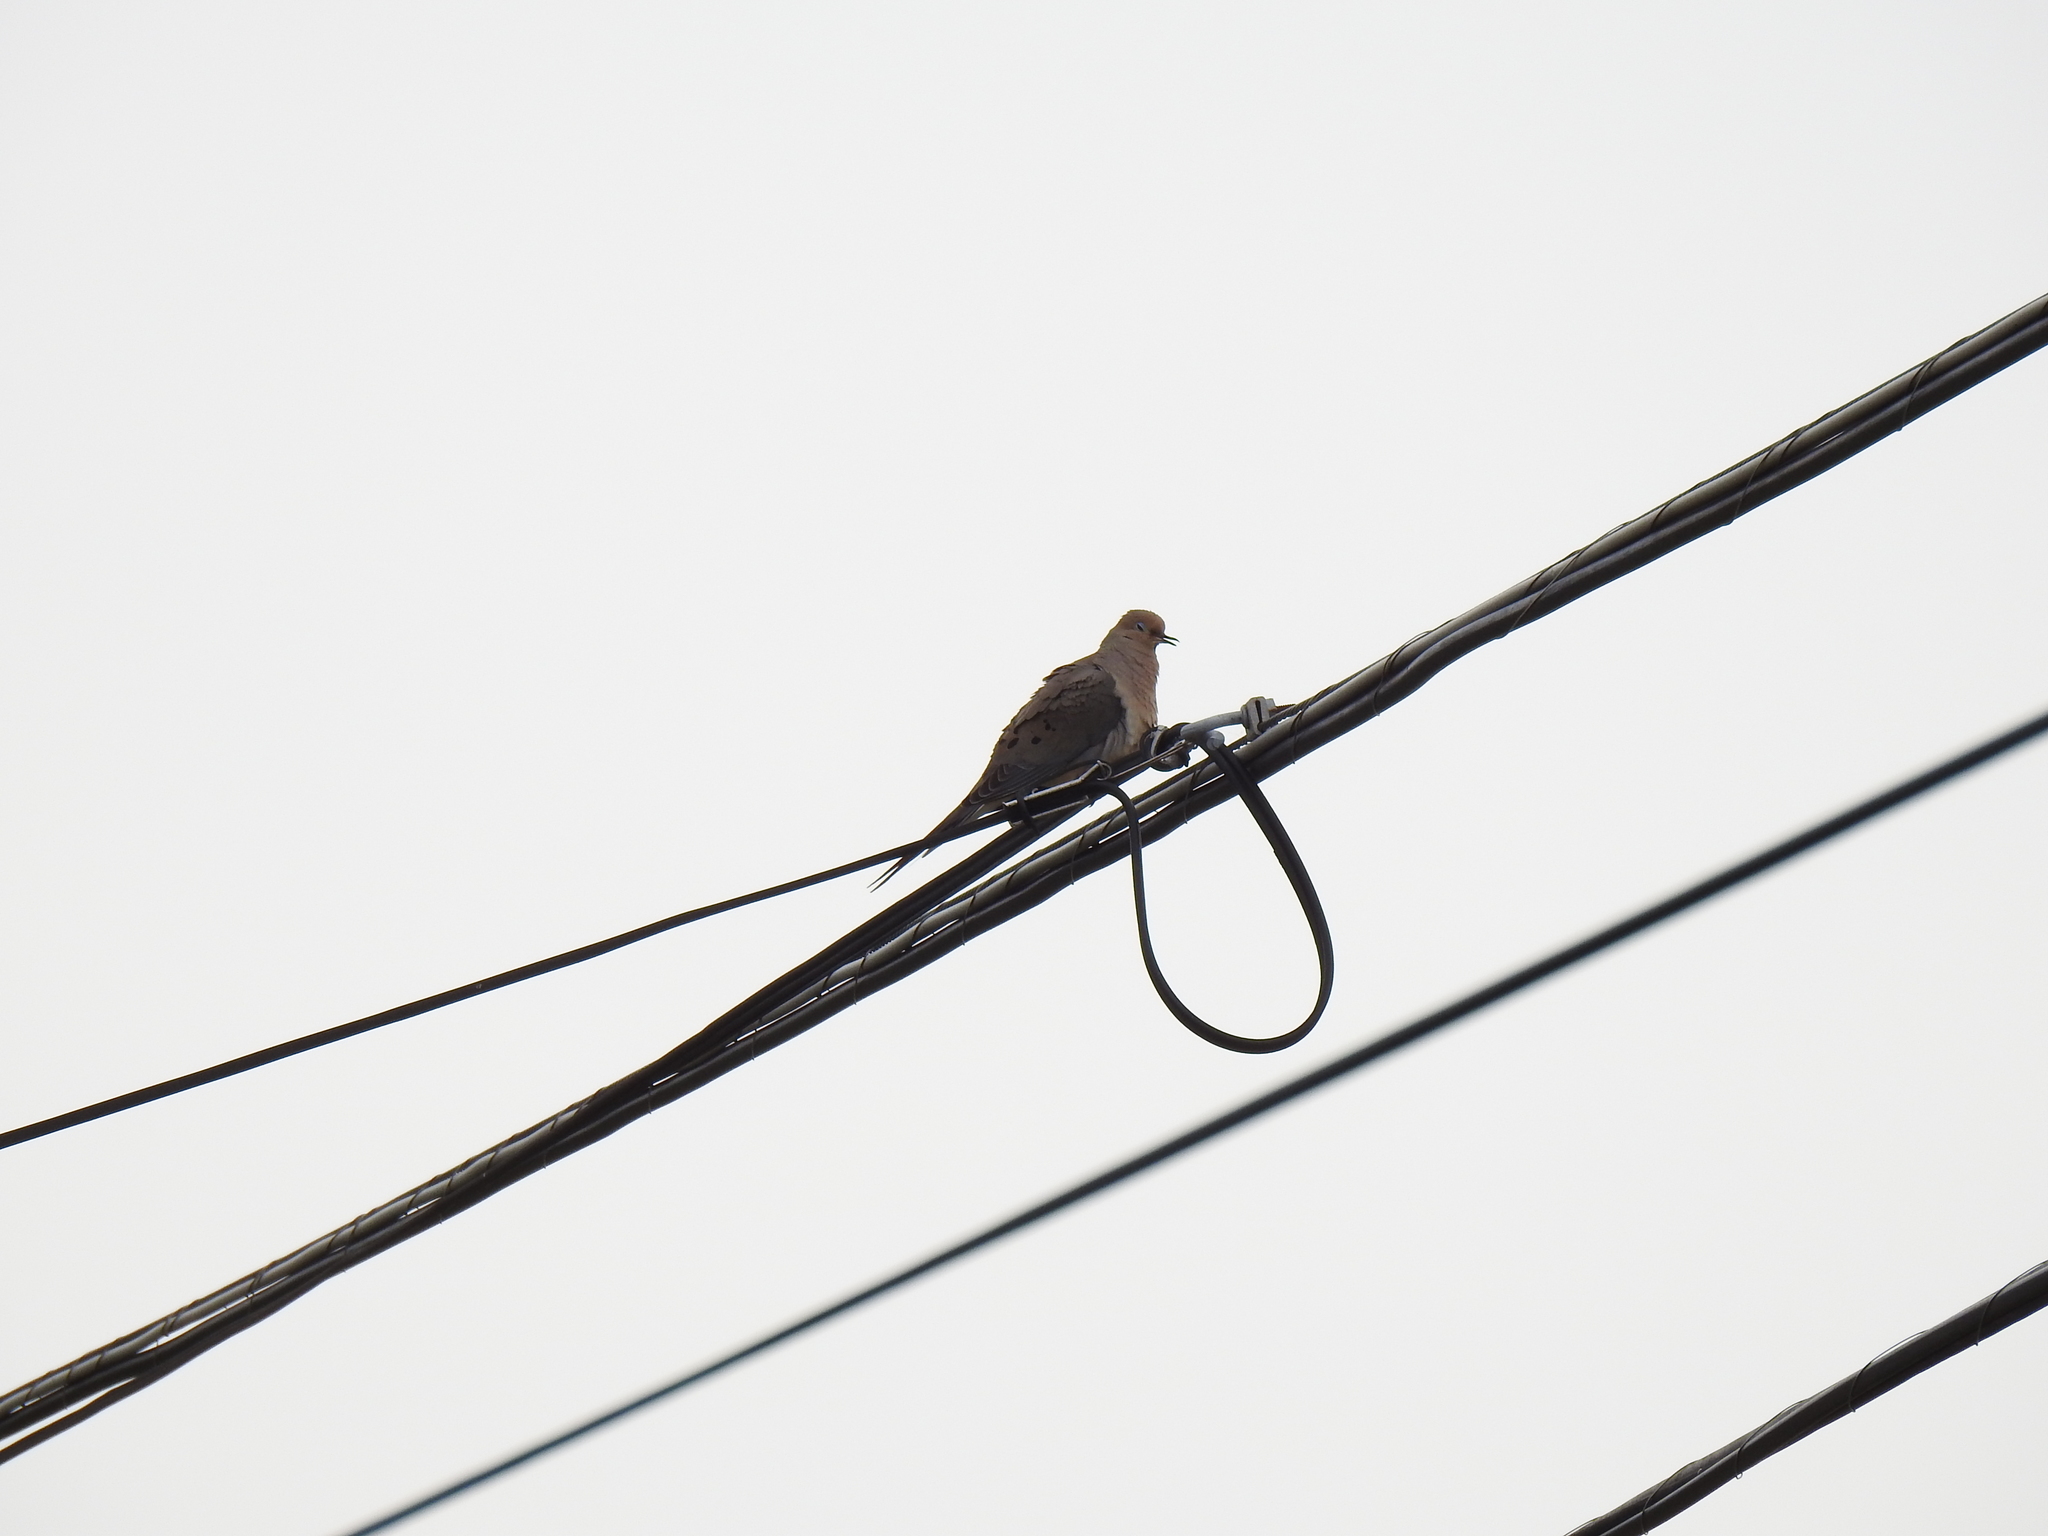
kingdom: Animalia
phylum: Chordata
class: Aves
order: Columbiformes
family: Columbidae
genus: Zenaida
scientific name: Zenaida macroura
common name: Mourning dove
